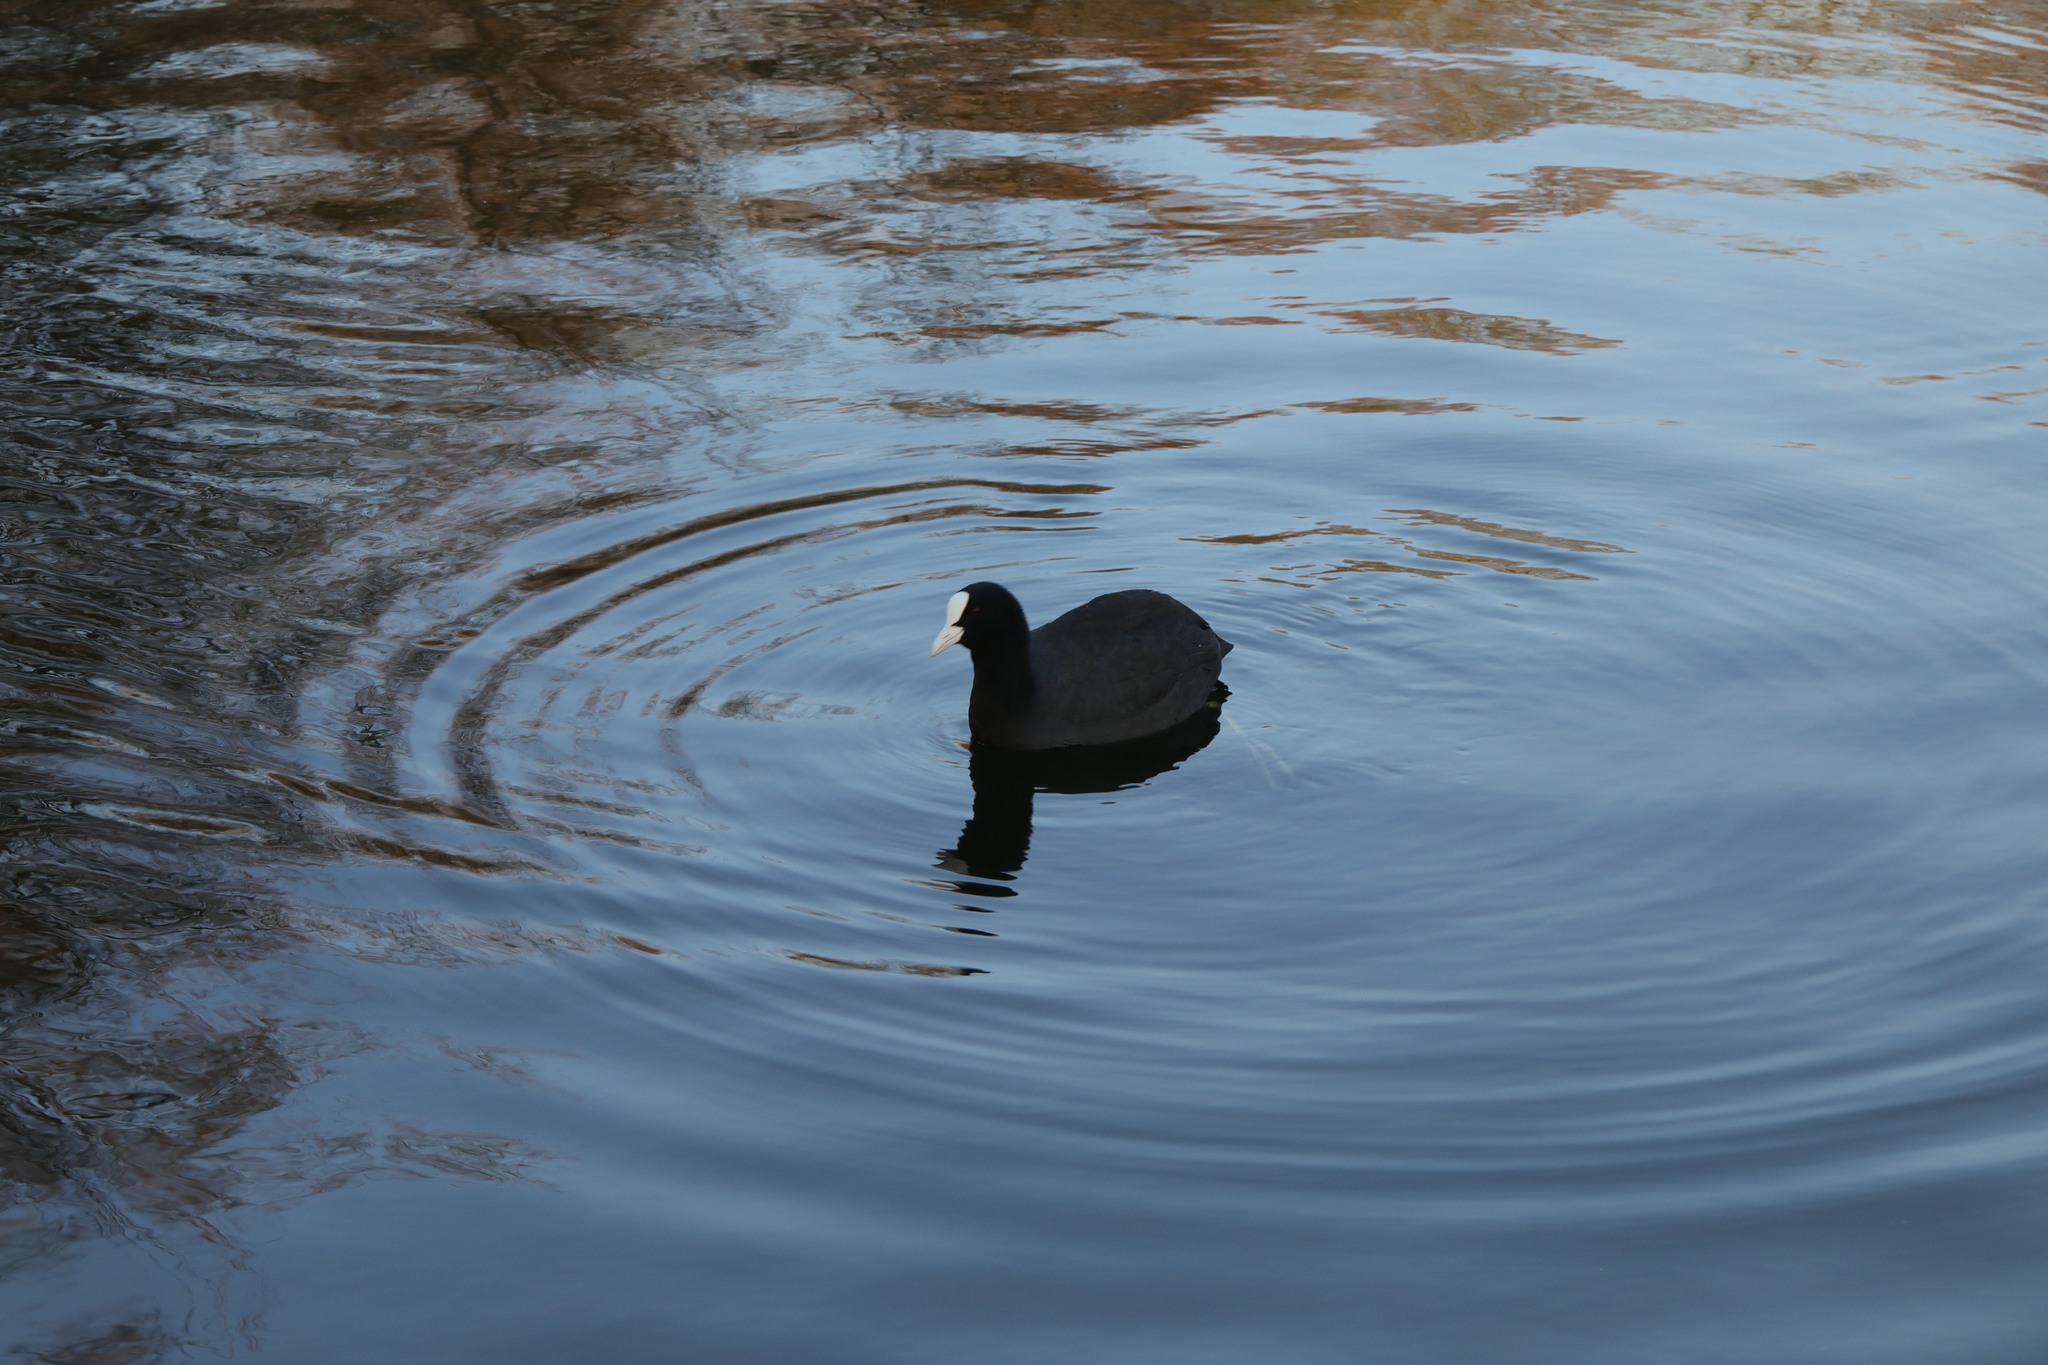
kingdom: Animalia
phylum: Chordata
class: Aves
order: Gruiformes
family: Rallidae
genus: Fulica
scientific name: Fulica atra
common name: Eurasian coot
